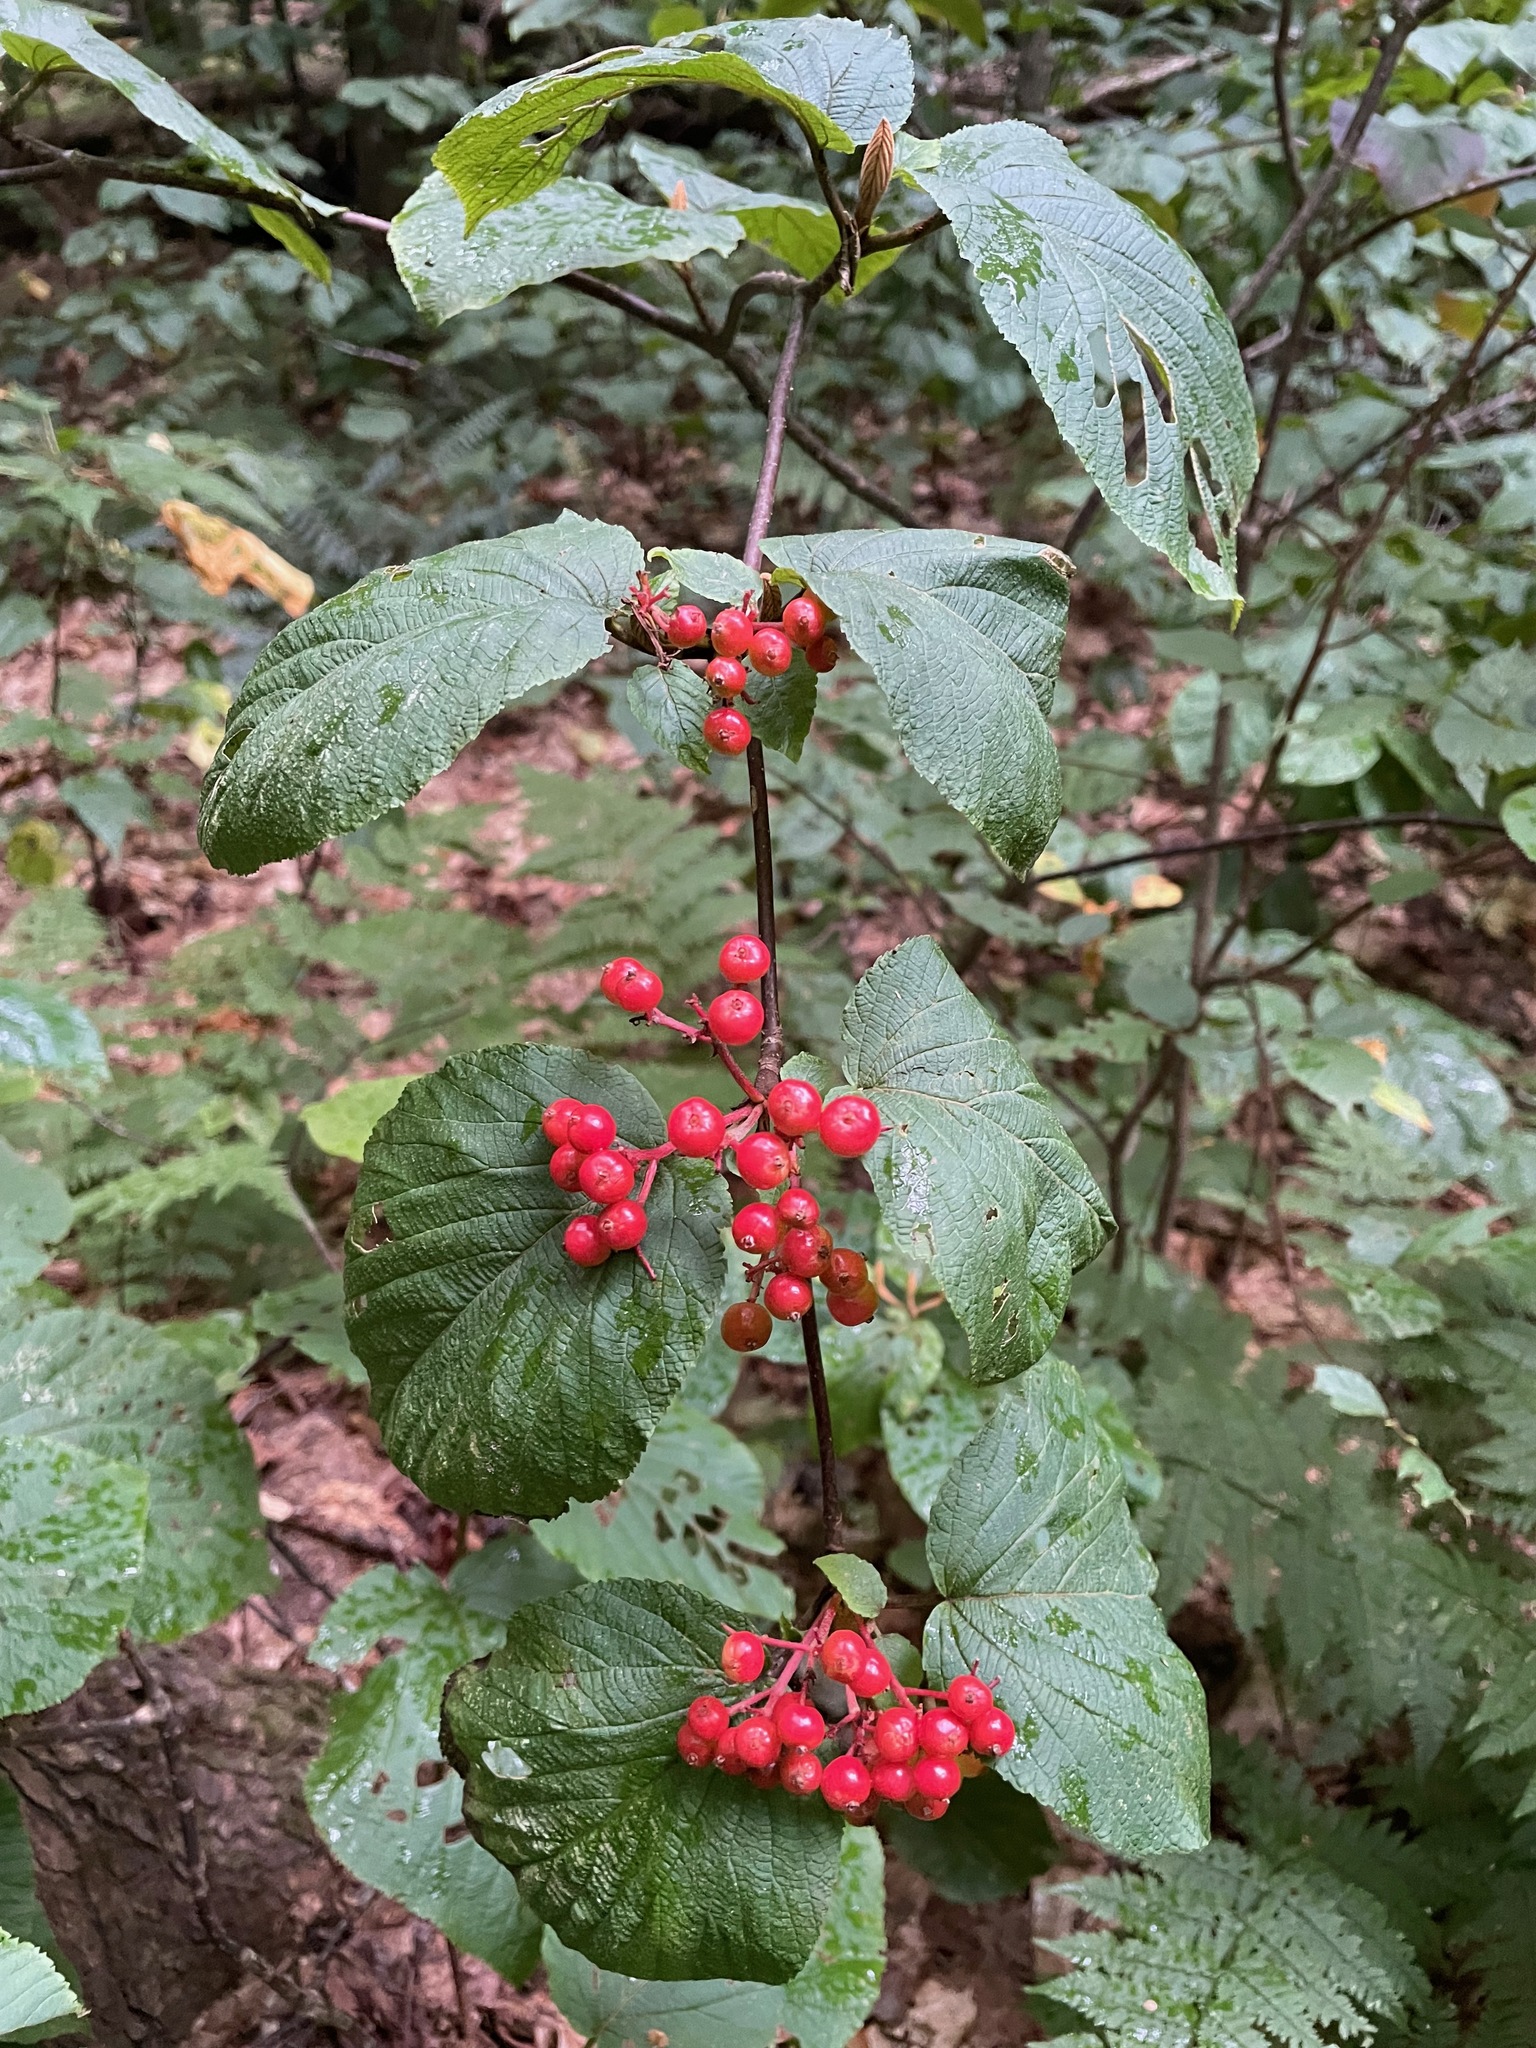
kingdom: Plantae
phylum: Tracheophyta
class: Magnoliopsida
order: Dipsacales
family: Viburnaceae
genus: Viburnum
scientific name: Viburnum lantanoides
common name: Hobblebush
